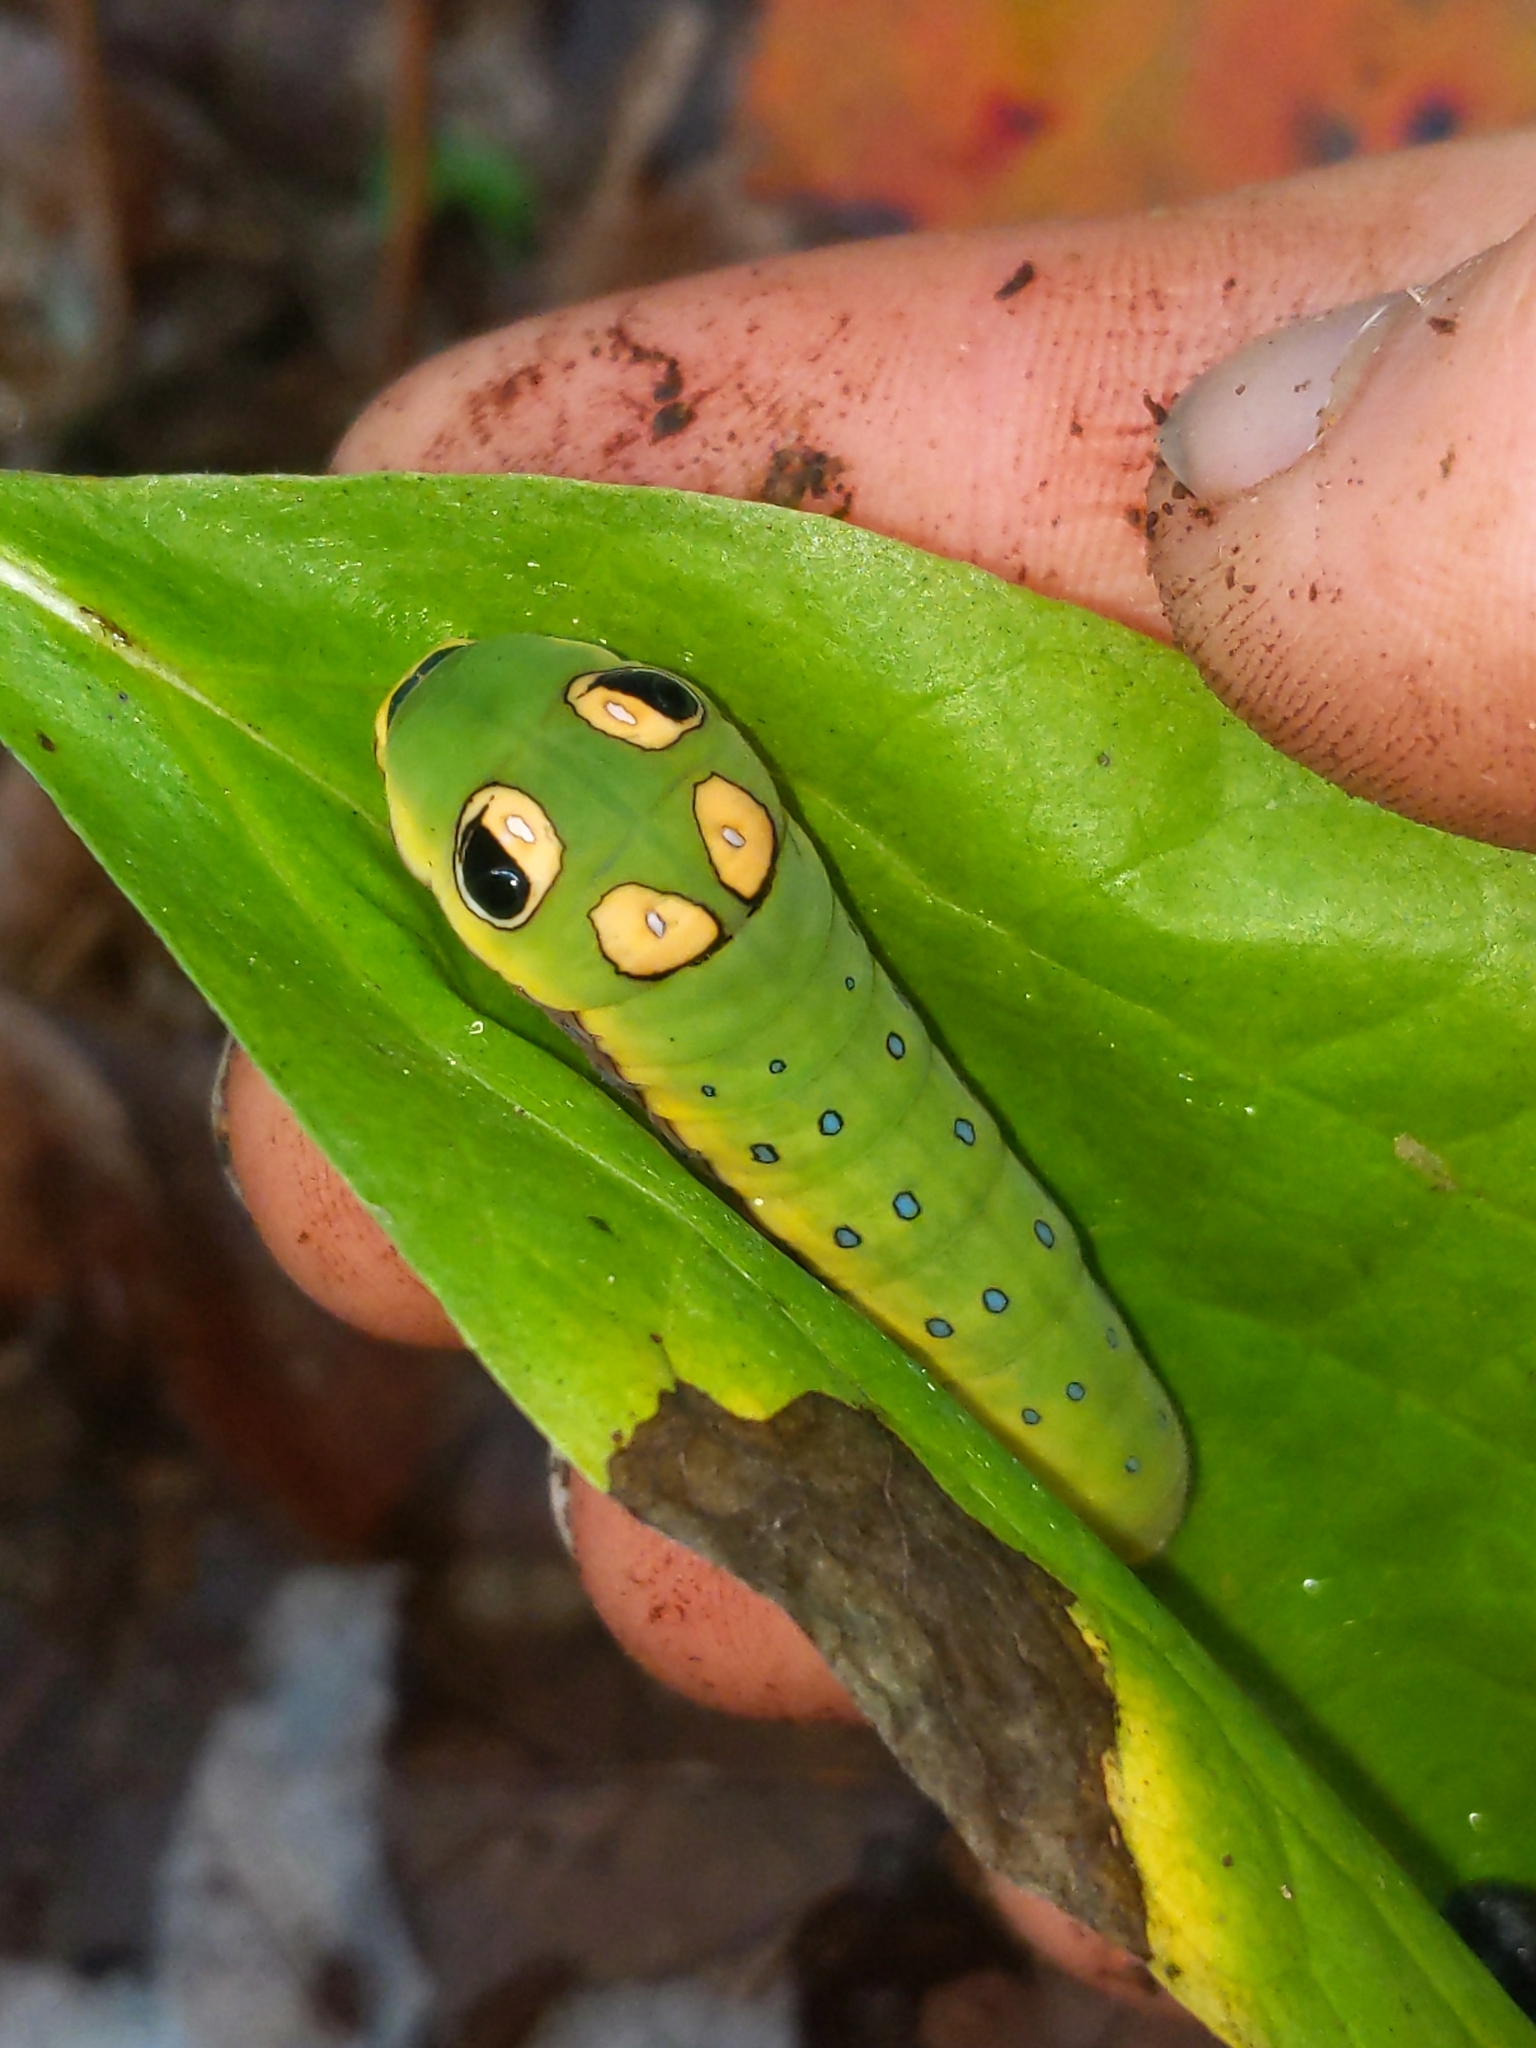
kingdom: Animalia
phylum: Arthropoda
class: Insecta
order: Lepidoptera
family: Papilionidae
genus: Papilio
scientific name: Papilio troilus
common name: Spicebush swallowtail
